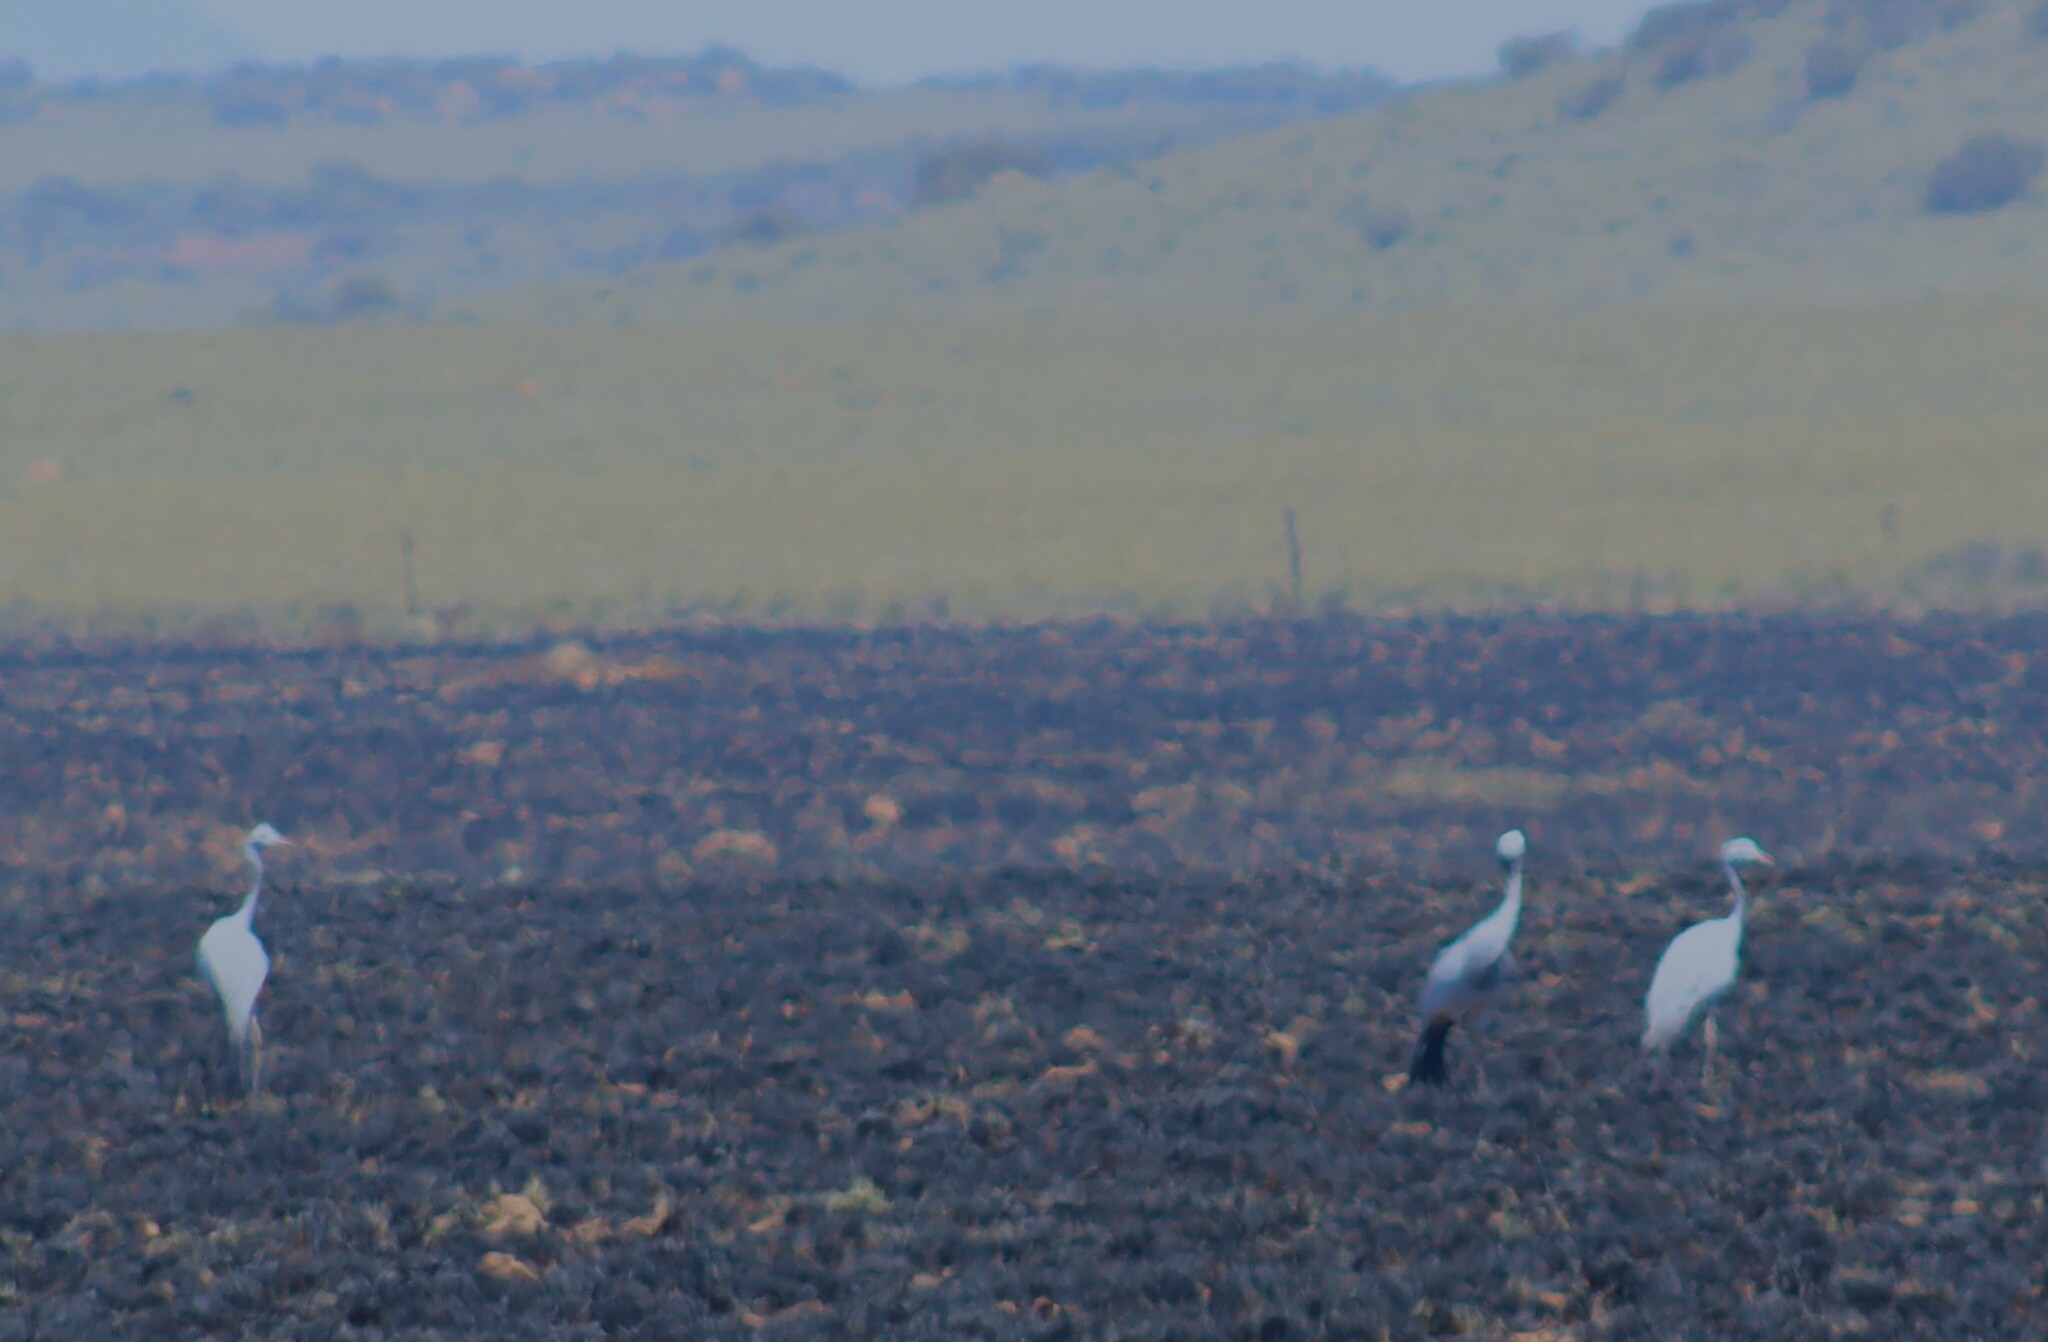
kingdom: Animalia
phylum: Chordata
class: Aves
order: Gruiformes
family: Gruidae
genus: Anthropoides
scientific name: Anthropoides paradiseus
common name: Blue crane
